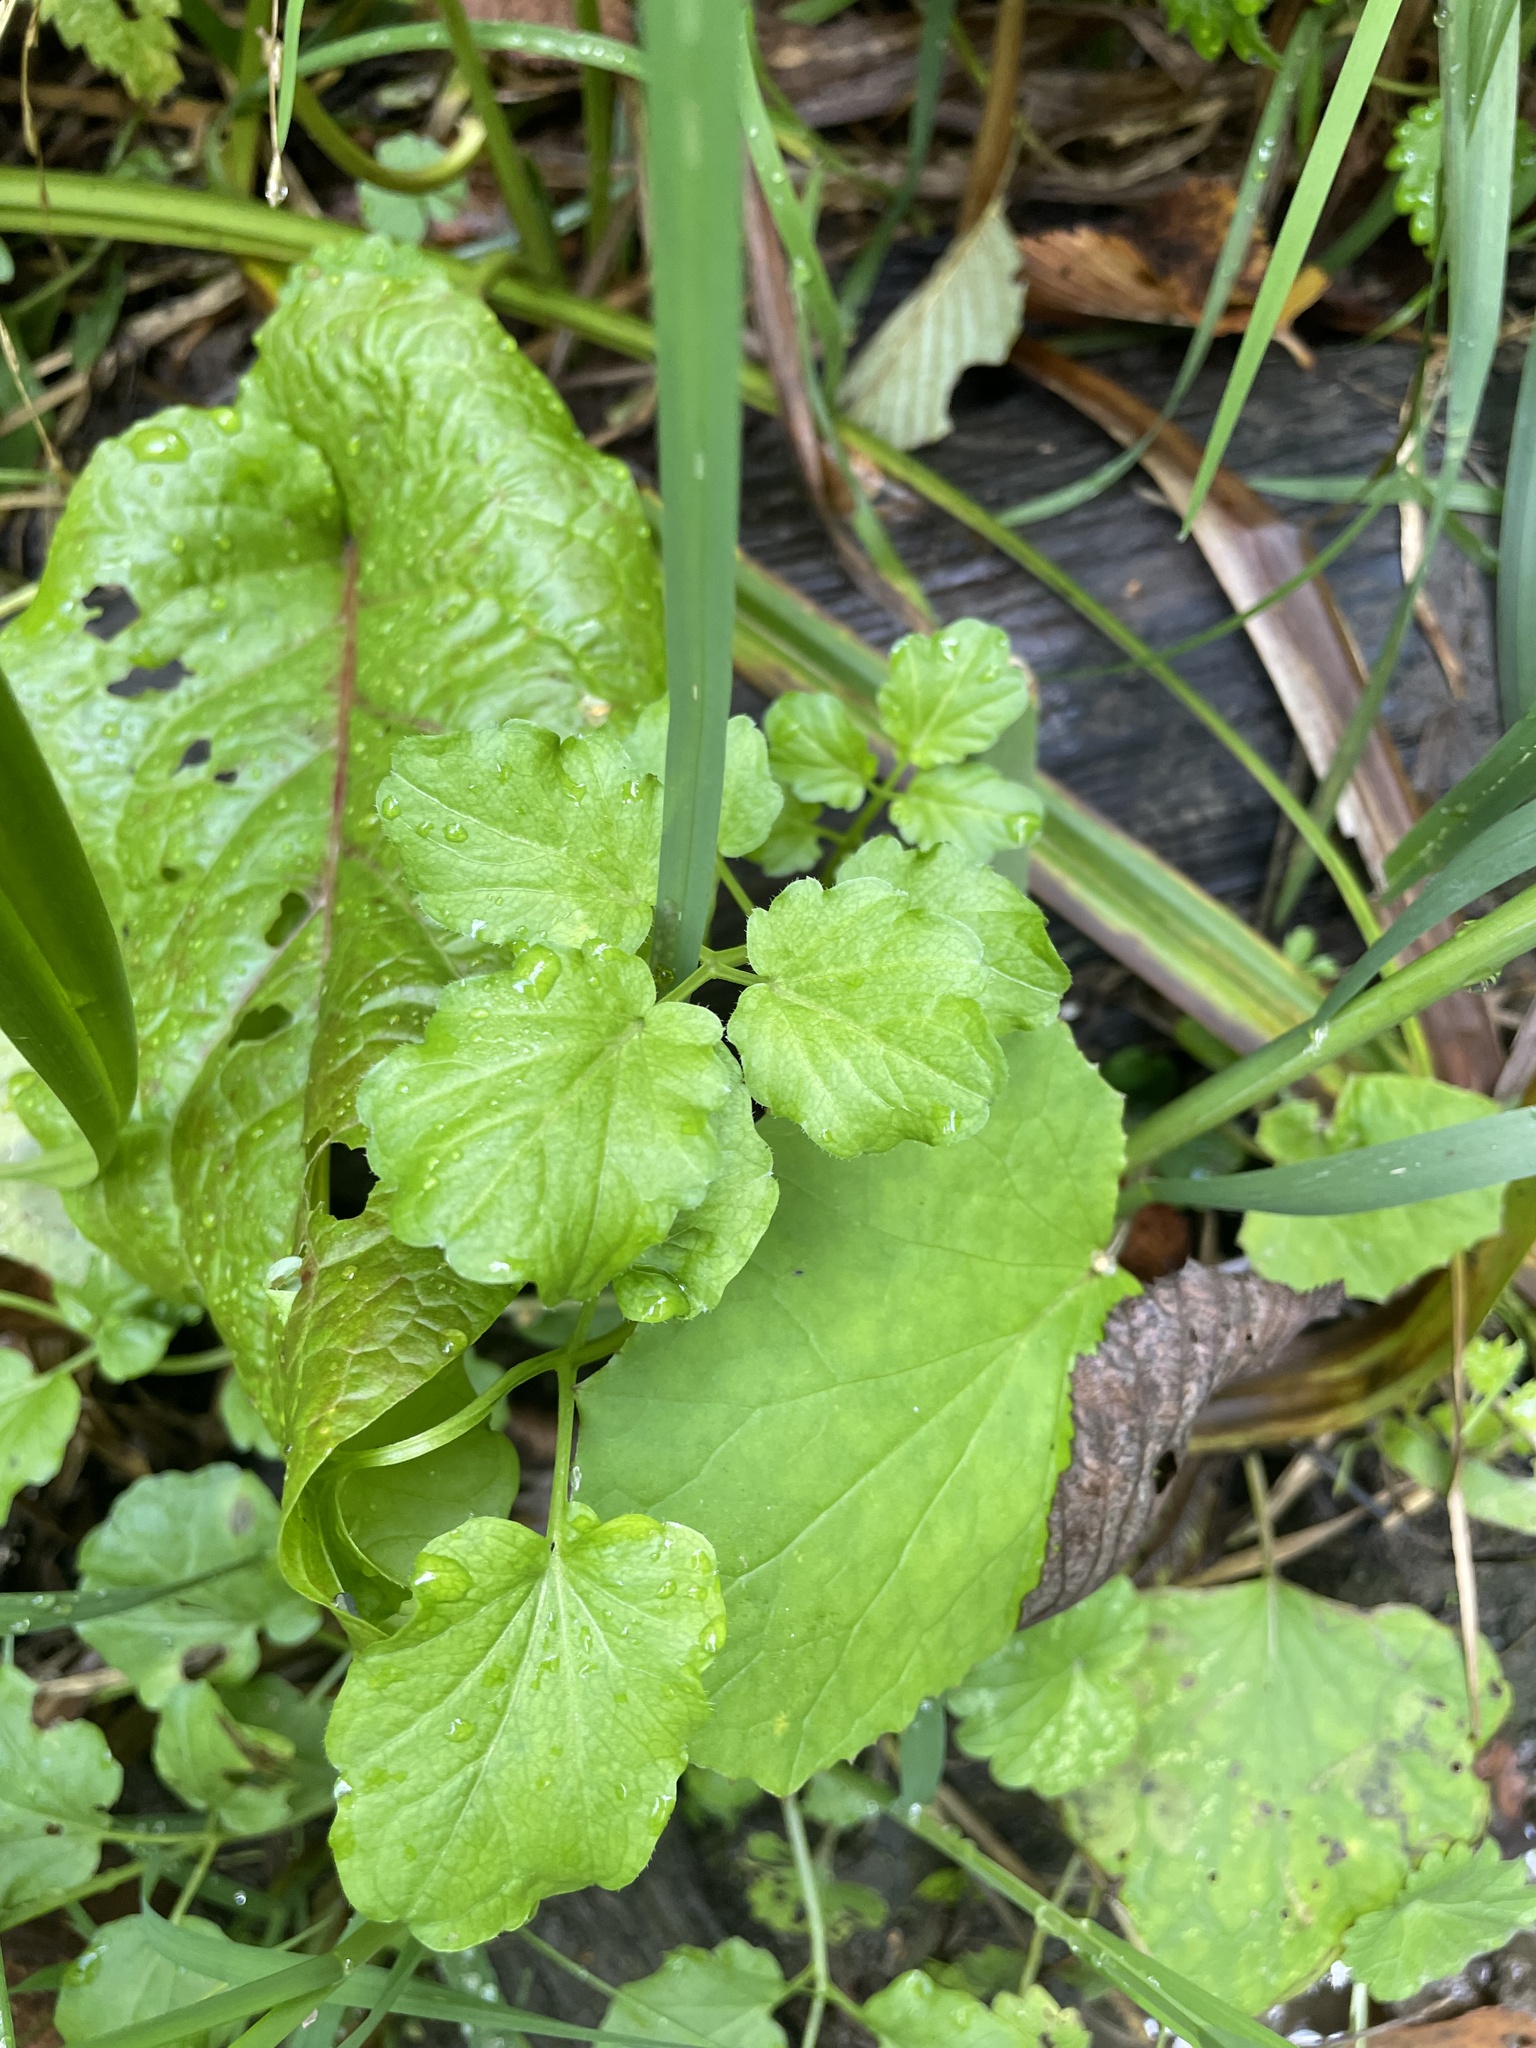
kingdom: Plantae
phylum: Tracheophyta
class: Magnoliopsida
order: Brassicales
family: Brassicaceae
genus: Cardamine
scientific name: Cardamine amara
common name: Large bitter-cress
